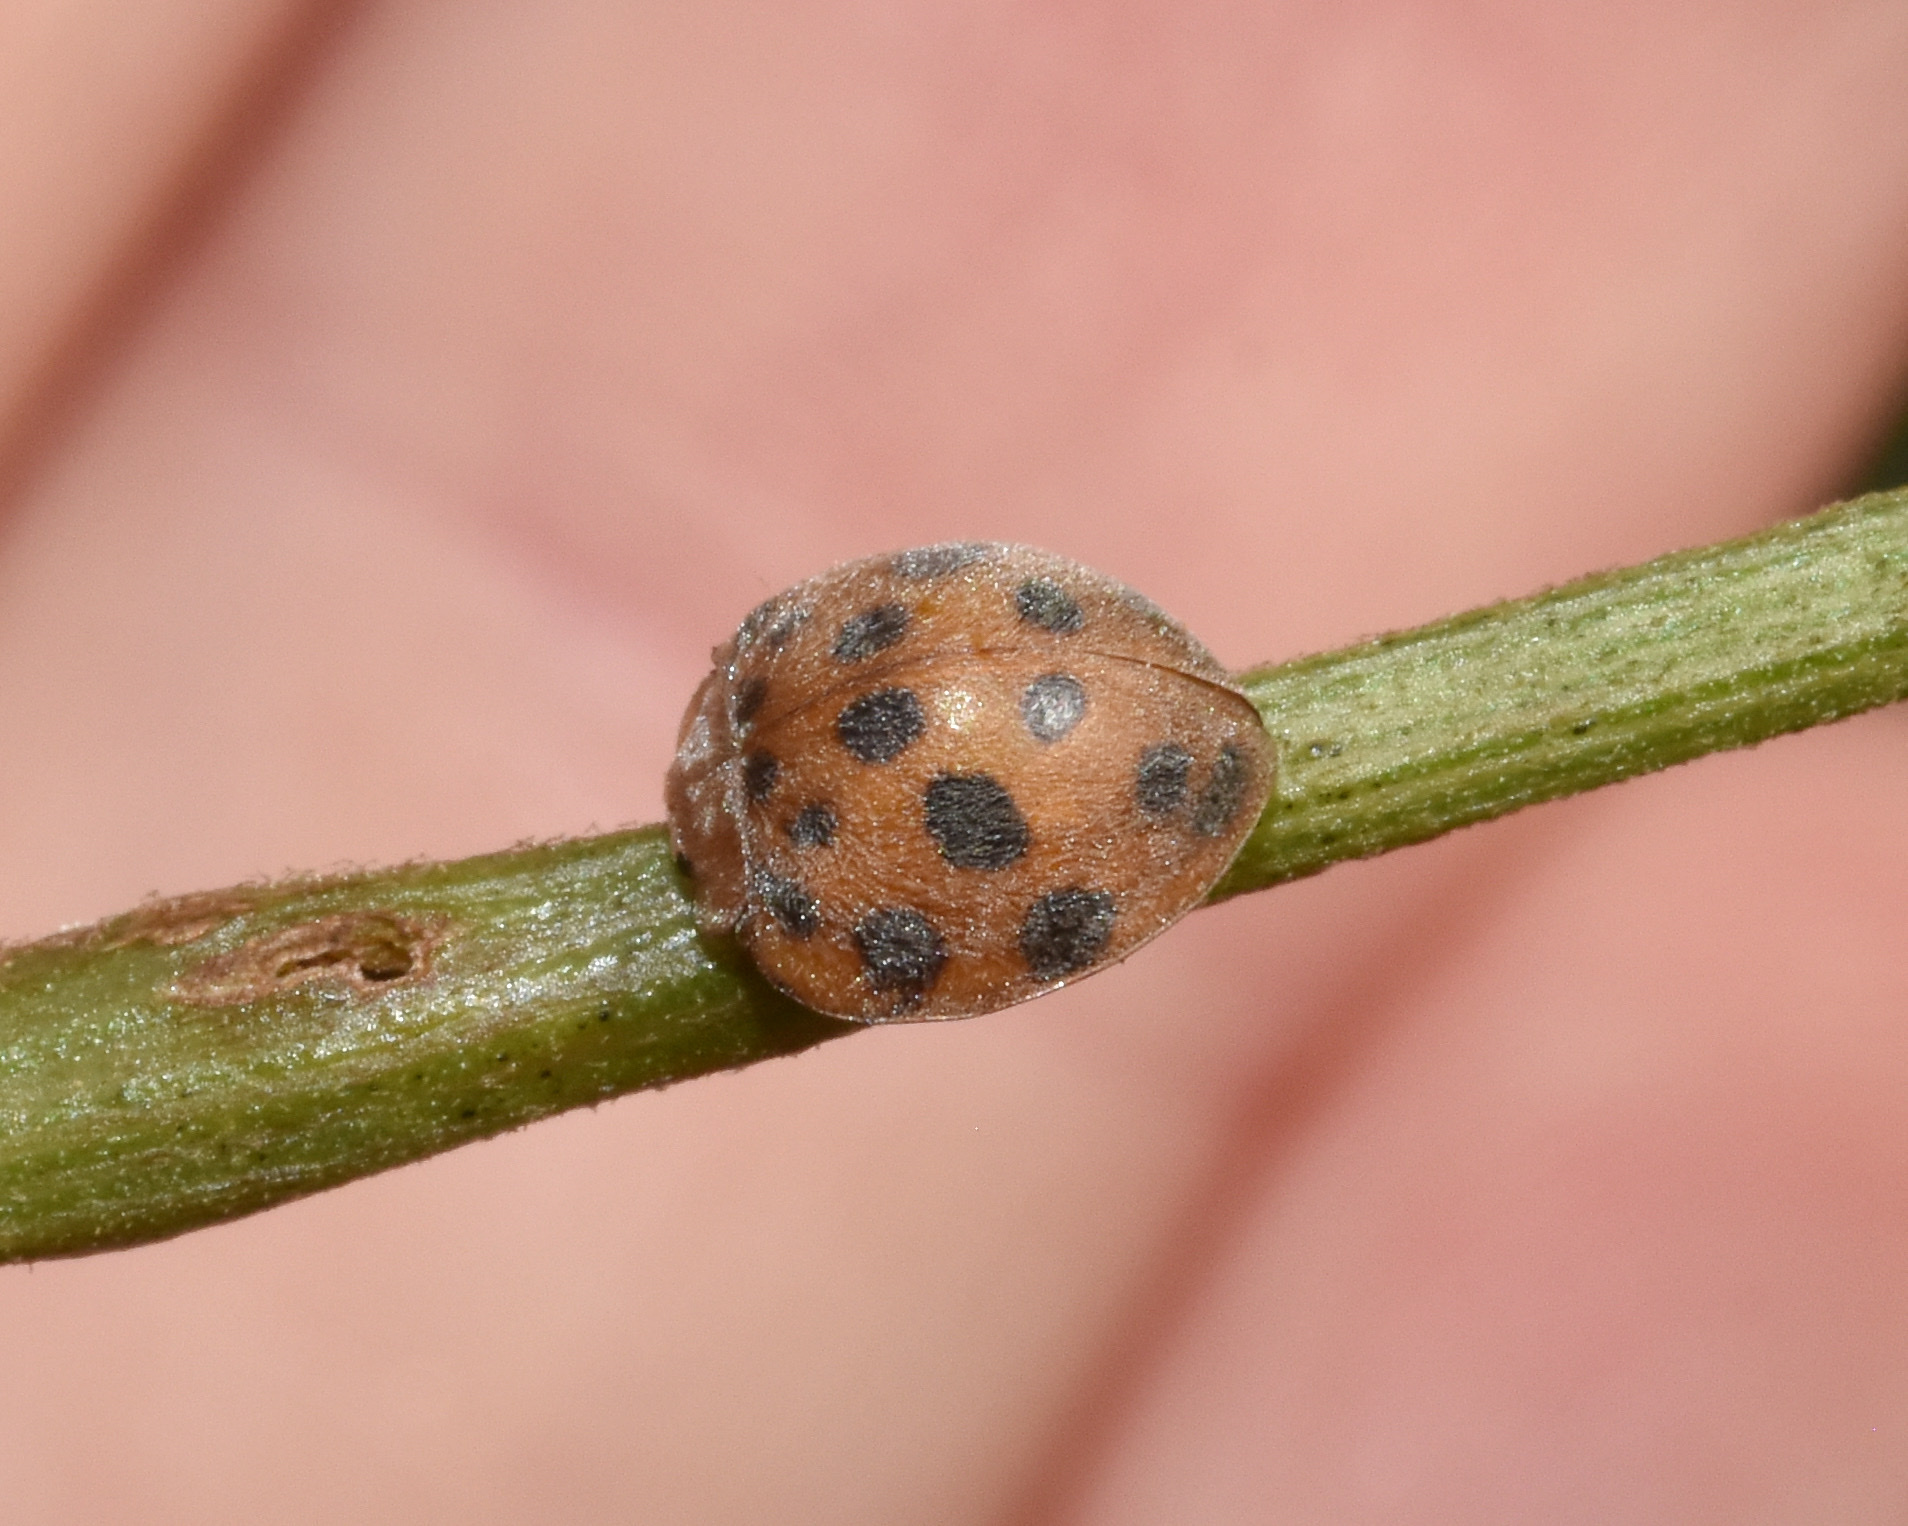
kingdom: Animalia
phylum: Arthropoda
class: Insecta
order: Lepidoptera
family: Geometridae
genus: Afrocleta
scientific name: Afrocleta
